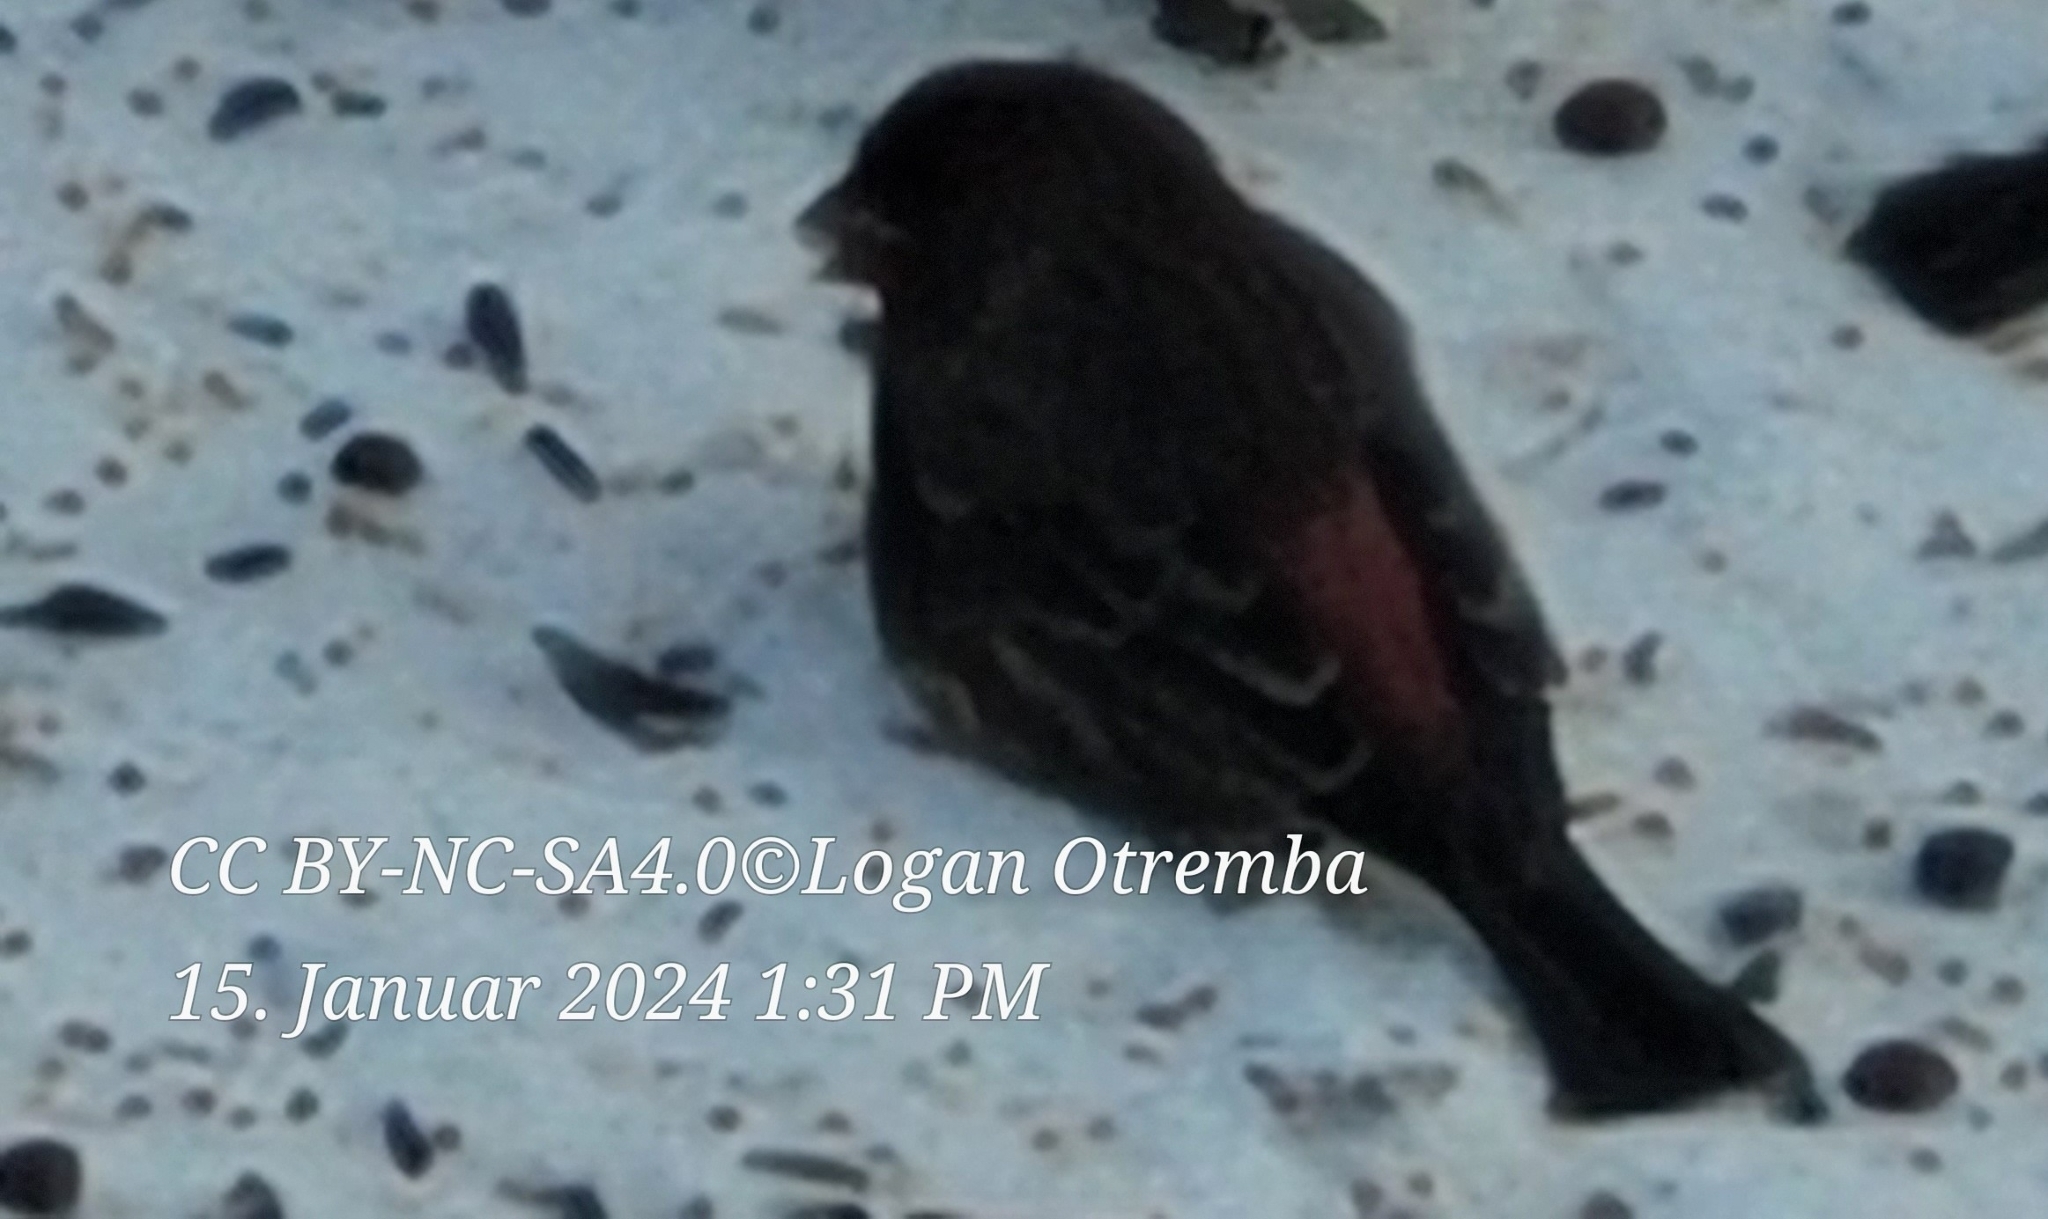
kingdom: Animalia
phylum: Chordata
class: Aves
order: Passeriformes
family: Fringillidae
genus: Haemorhous
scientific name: Haemorhous mexicanus
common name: House finch
